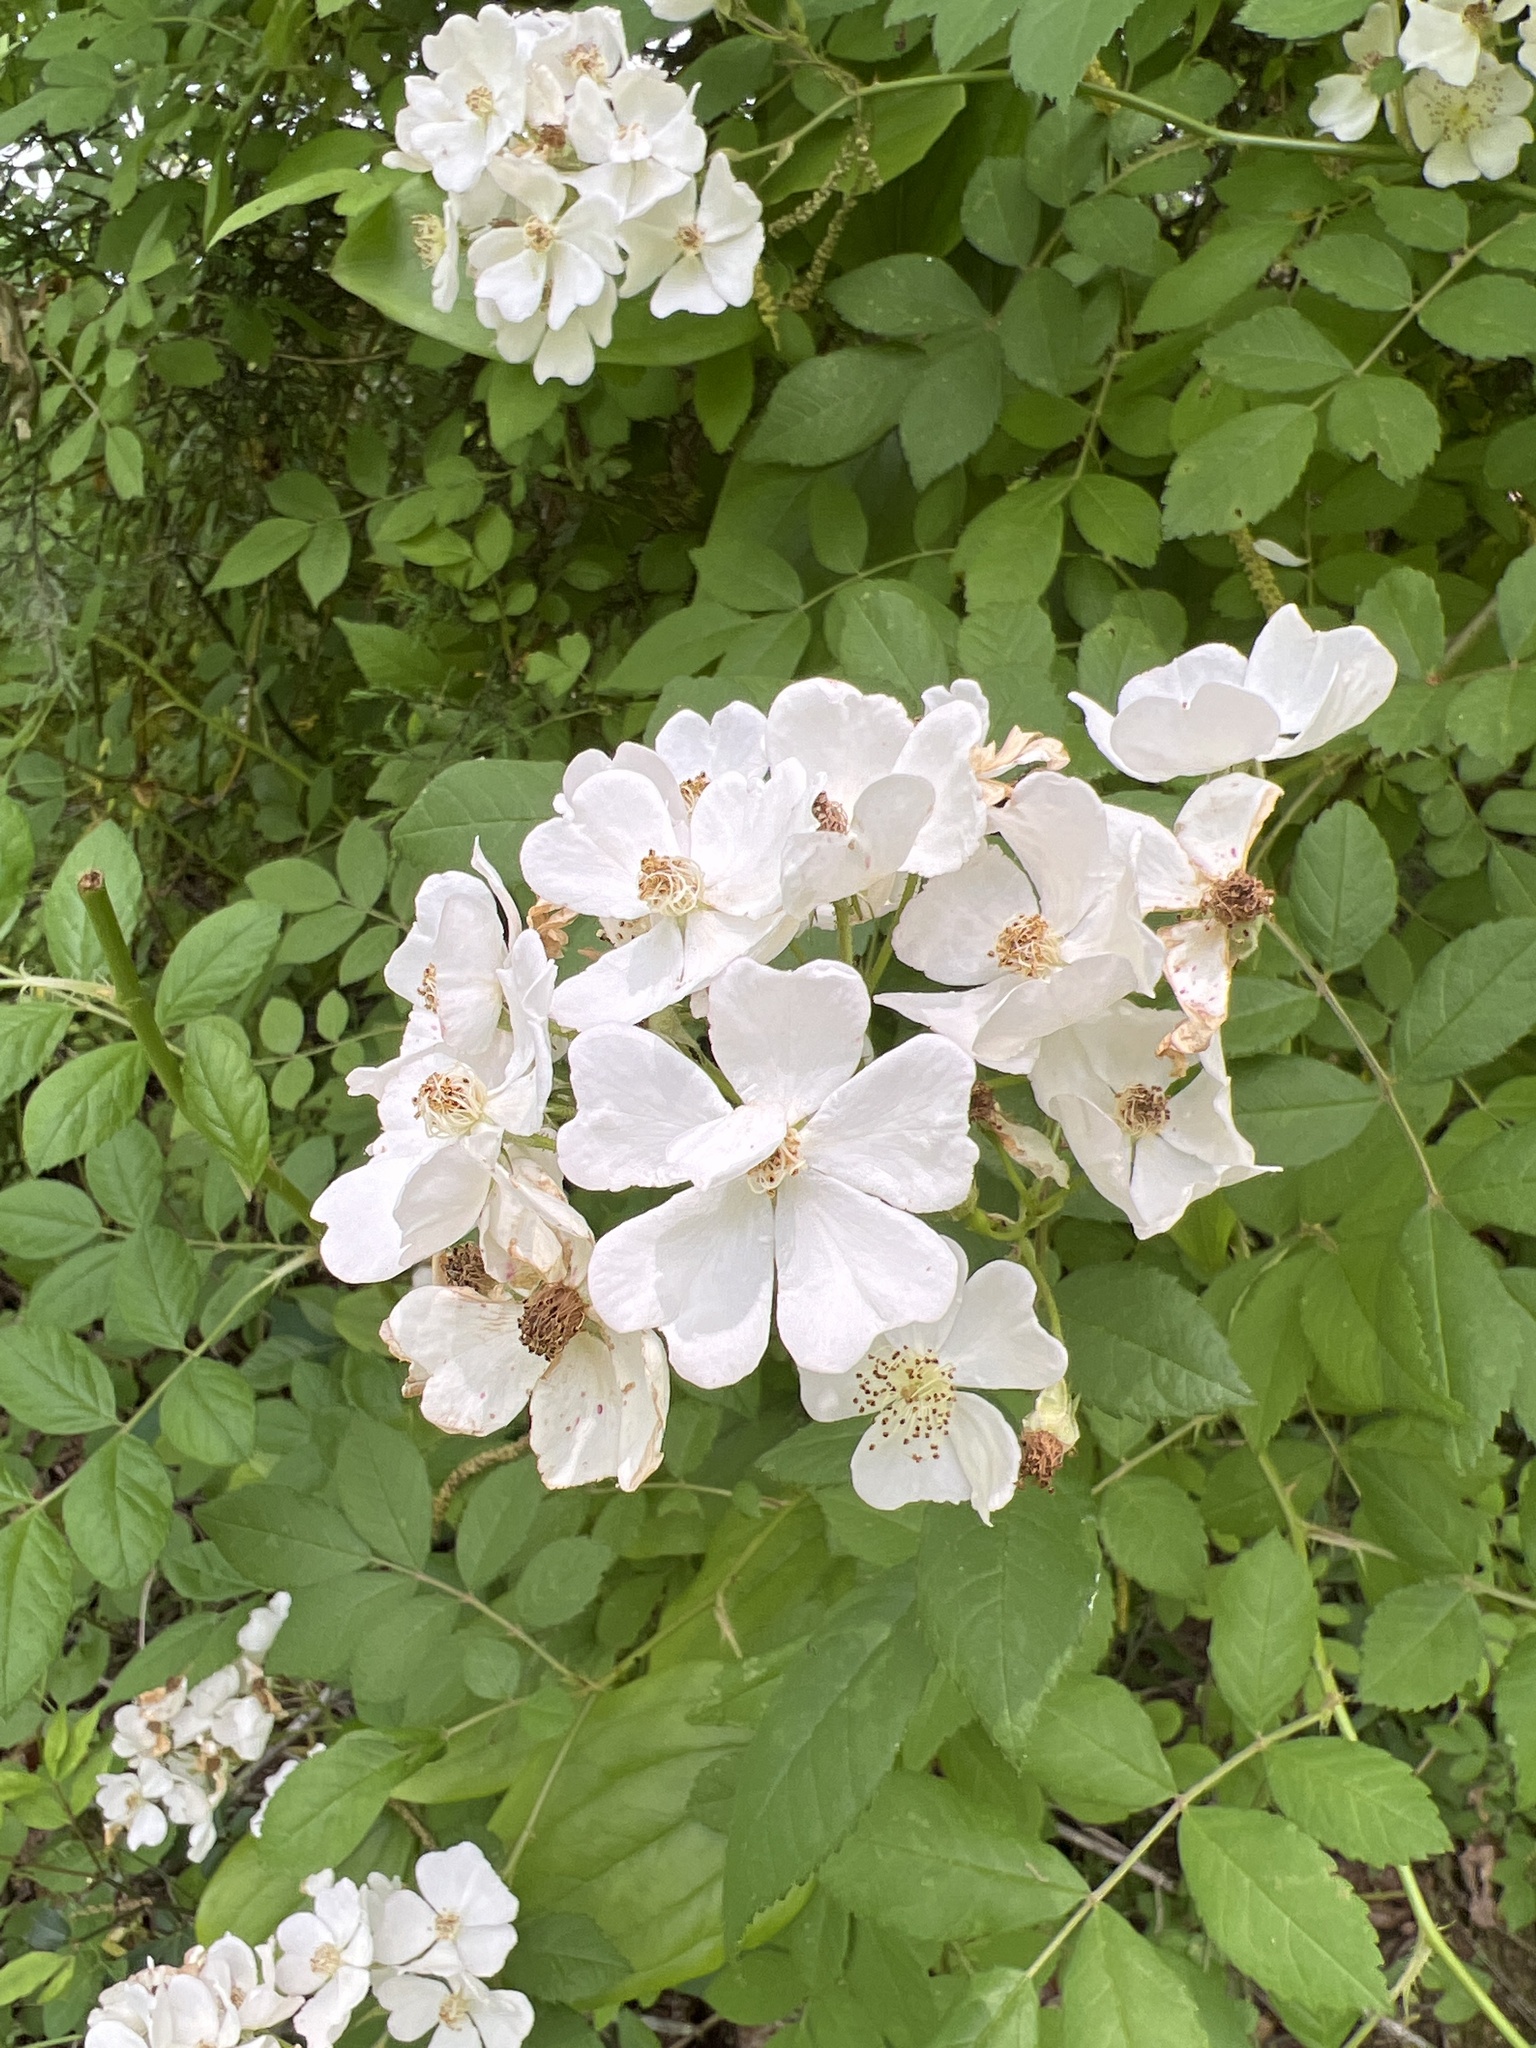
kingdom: Plantae
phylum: Tracheophyta
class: Magnoliopsida
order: Rosales
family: Rosaceae
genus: Rosa
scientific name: Rosa multiflora
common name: Multiflora rose
